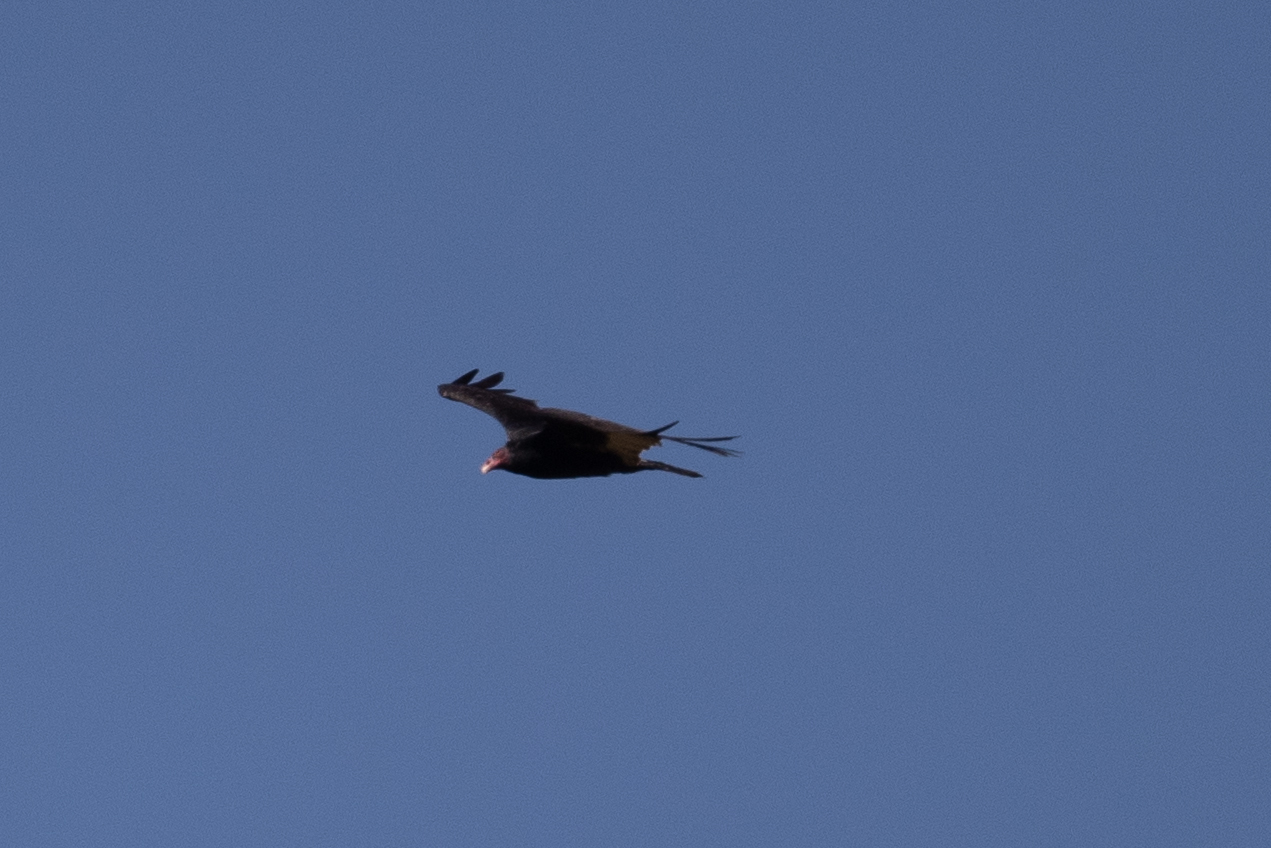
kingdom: Animalia
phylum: Chordata
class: Aves
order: Accipitriformes
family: Cathartidae
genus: Cathartes
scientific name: Cathartes aura
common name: Turkey vulture
